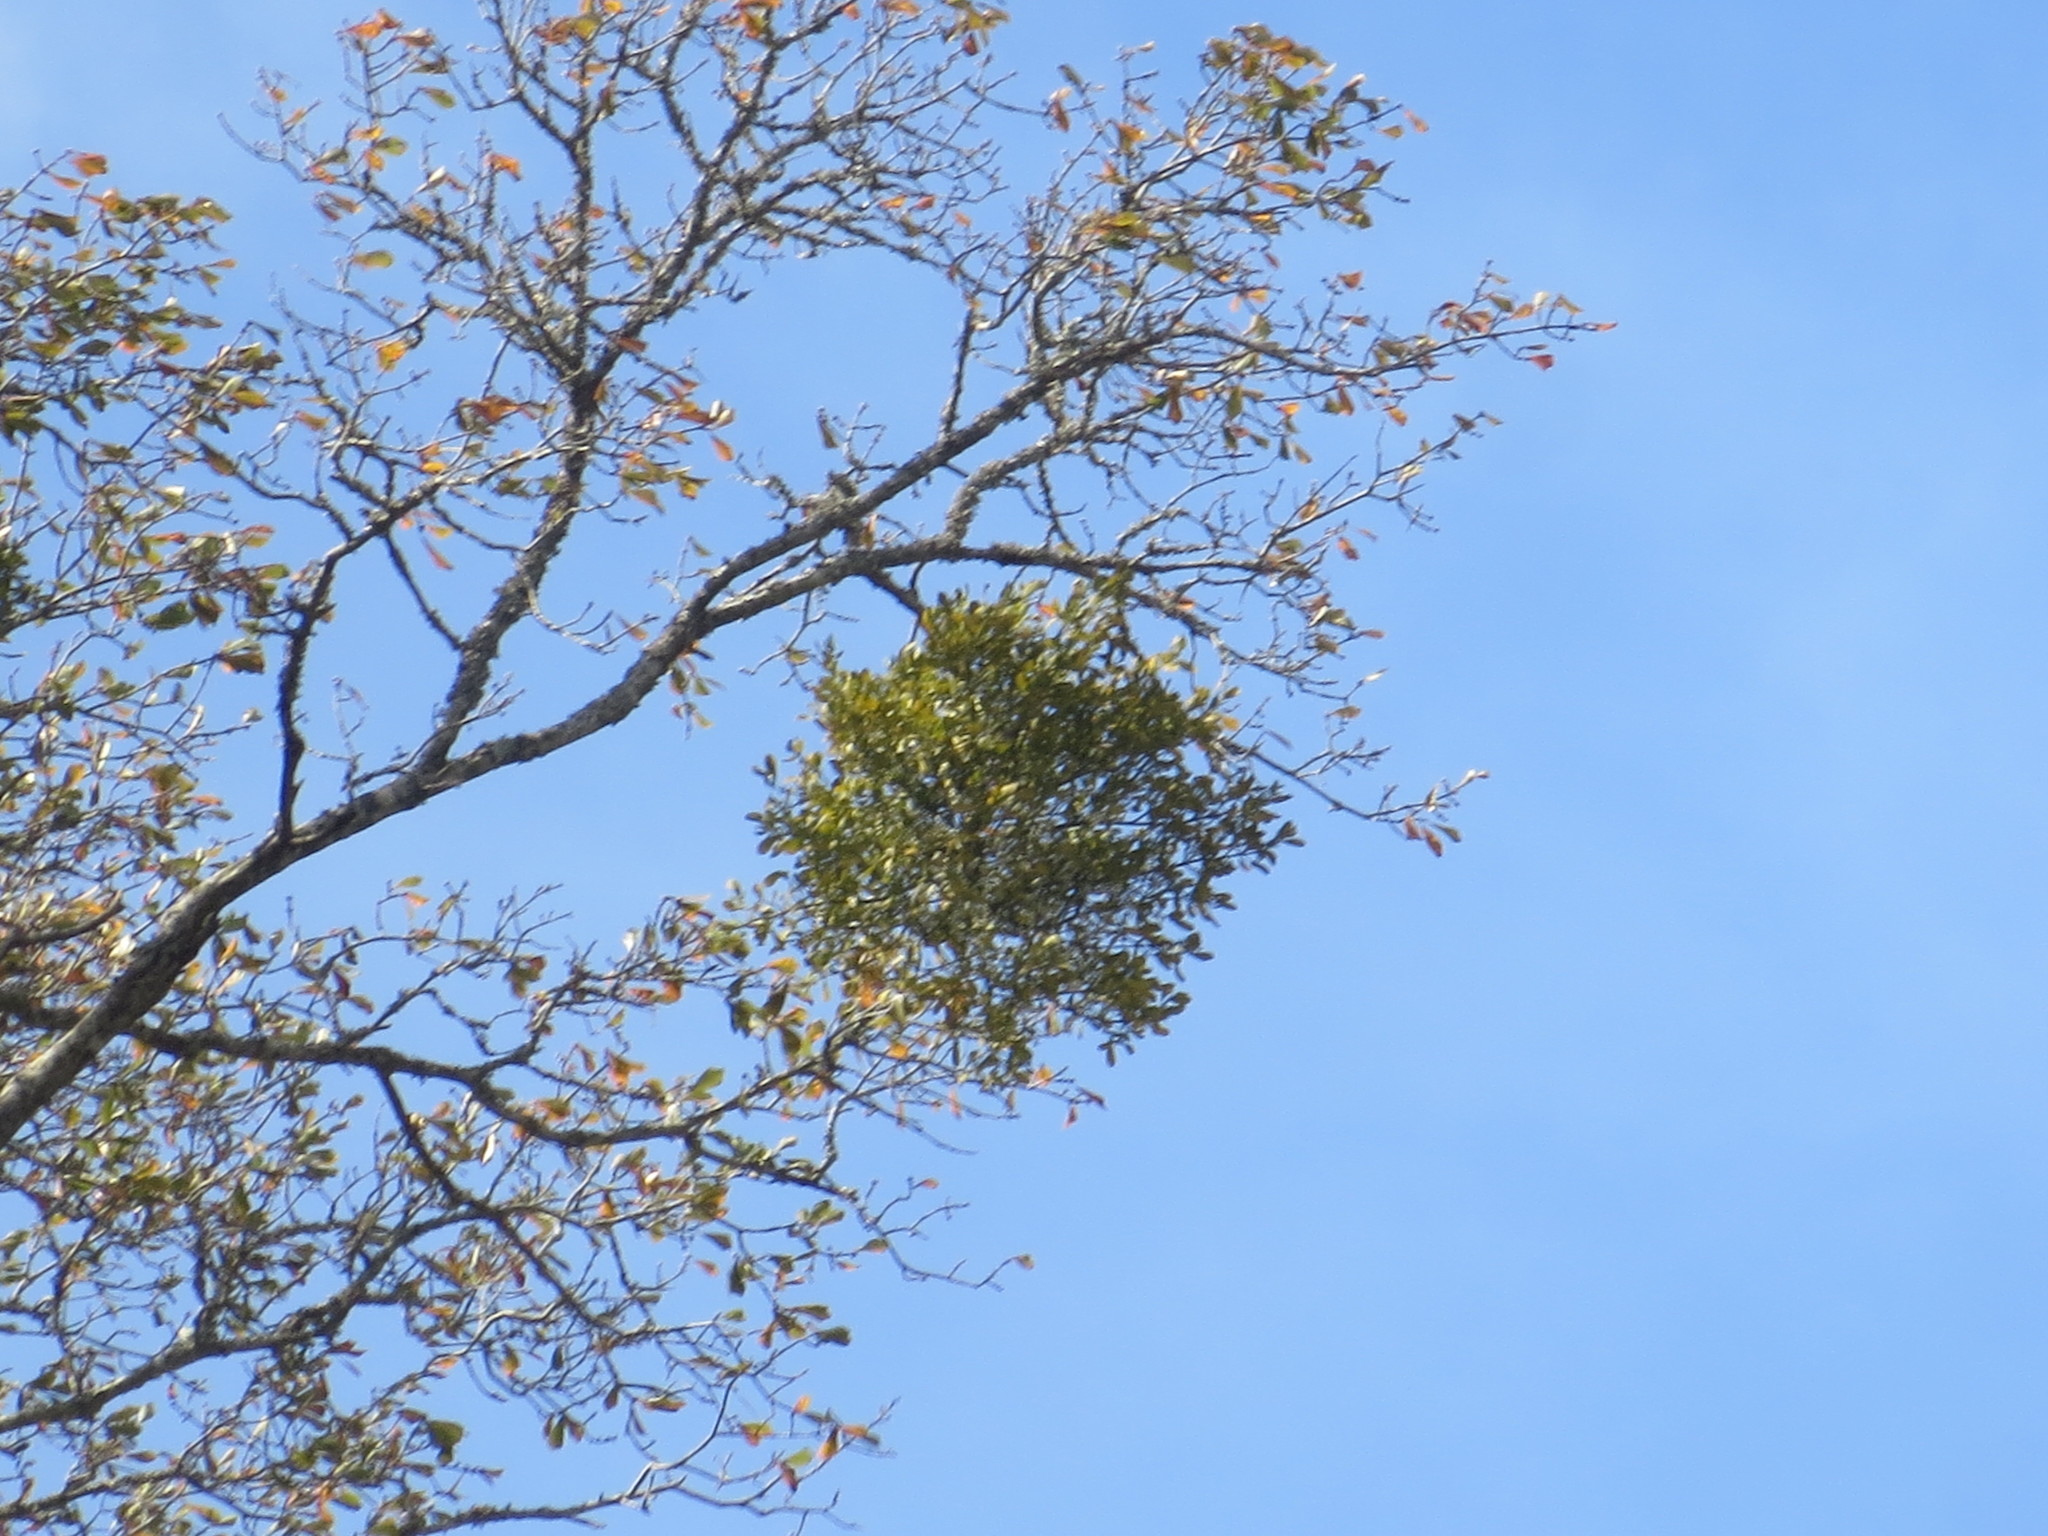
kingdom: Plantae
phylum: Tracheophyta
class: Magnoliopsida
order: Santalales
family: Viscaceae
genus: Phoradendron
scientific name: Phoradendron leucarpum
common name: Pacific mistletoe
